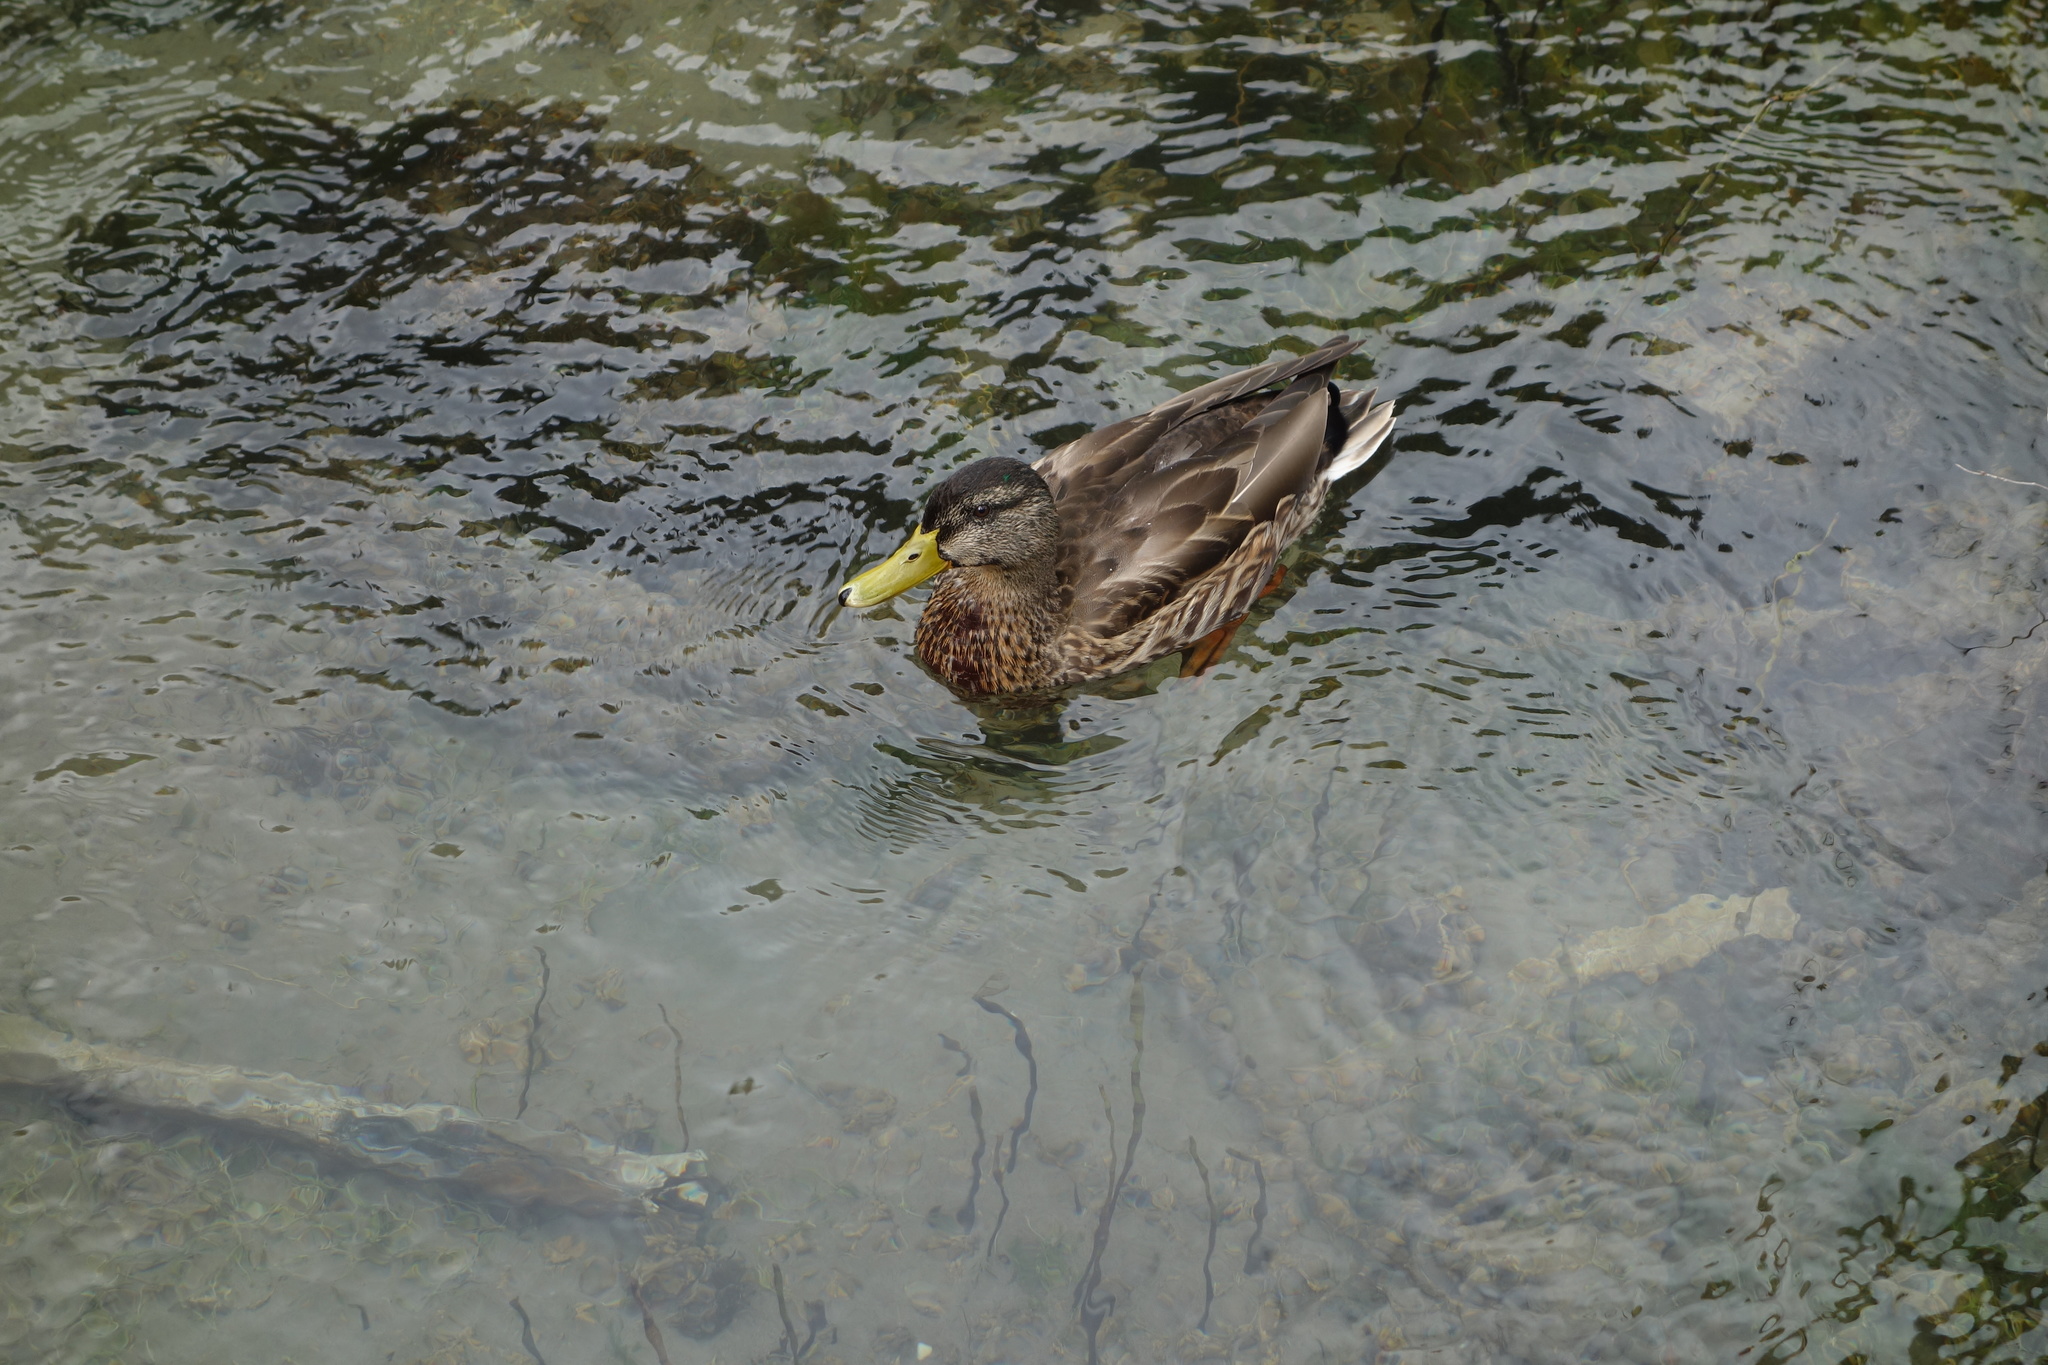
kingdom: Animalia
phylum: Chordata
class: Aves
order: Anseriformes
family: Anatidae
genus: Anas
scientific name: Anas platyrhynchos
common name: Mallard
